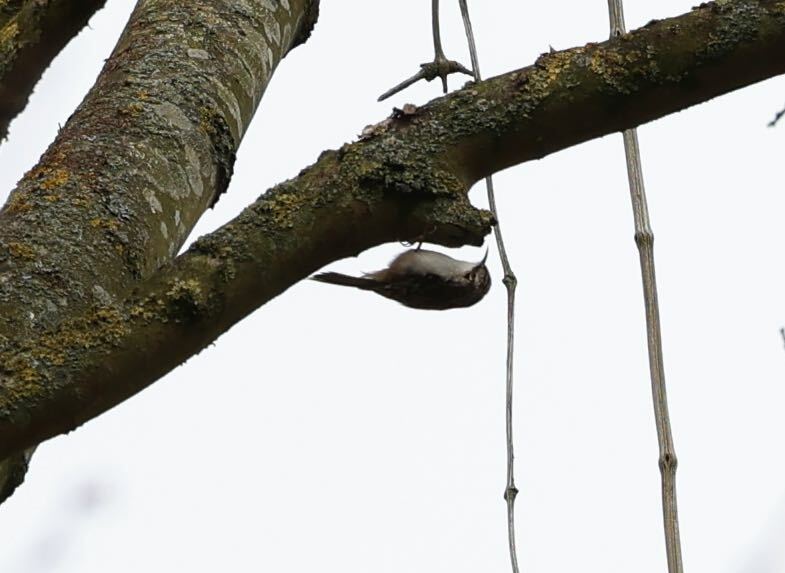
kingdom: Animalia
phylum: Chordata
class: Aves
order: Passeriformes
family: Certhiidae
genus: Certhia
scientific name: Certhia familiaris
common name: Eurasian treecreeper
